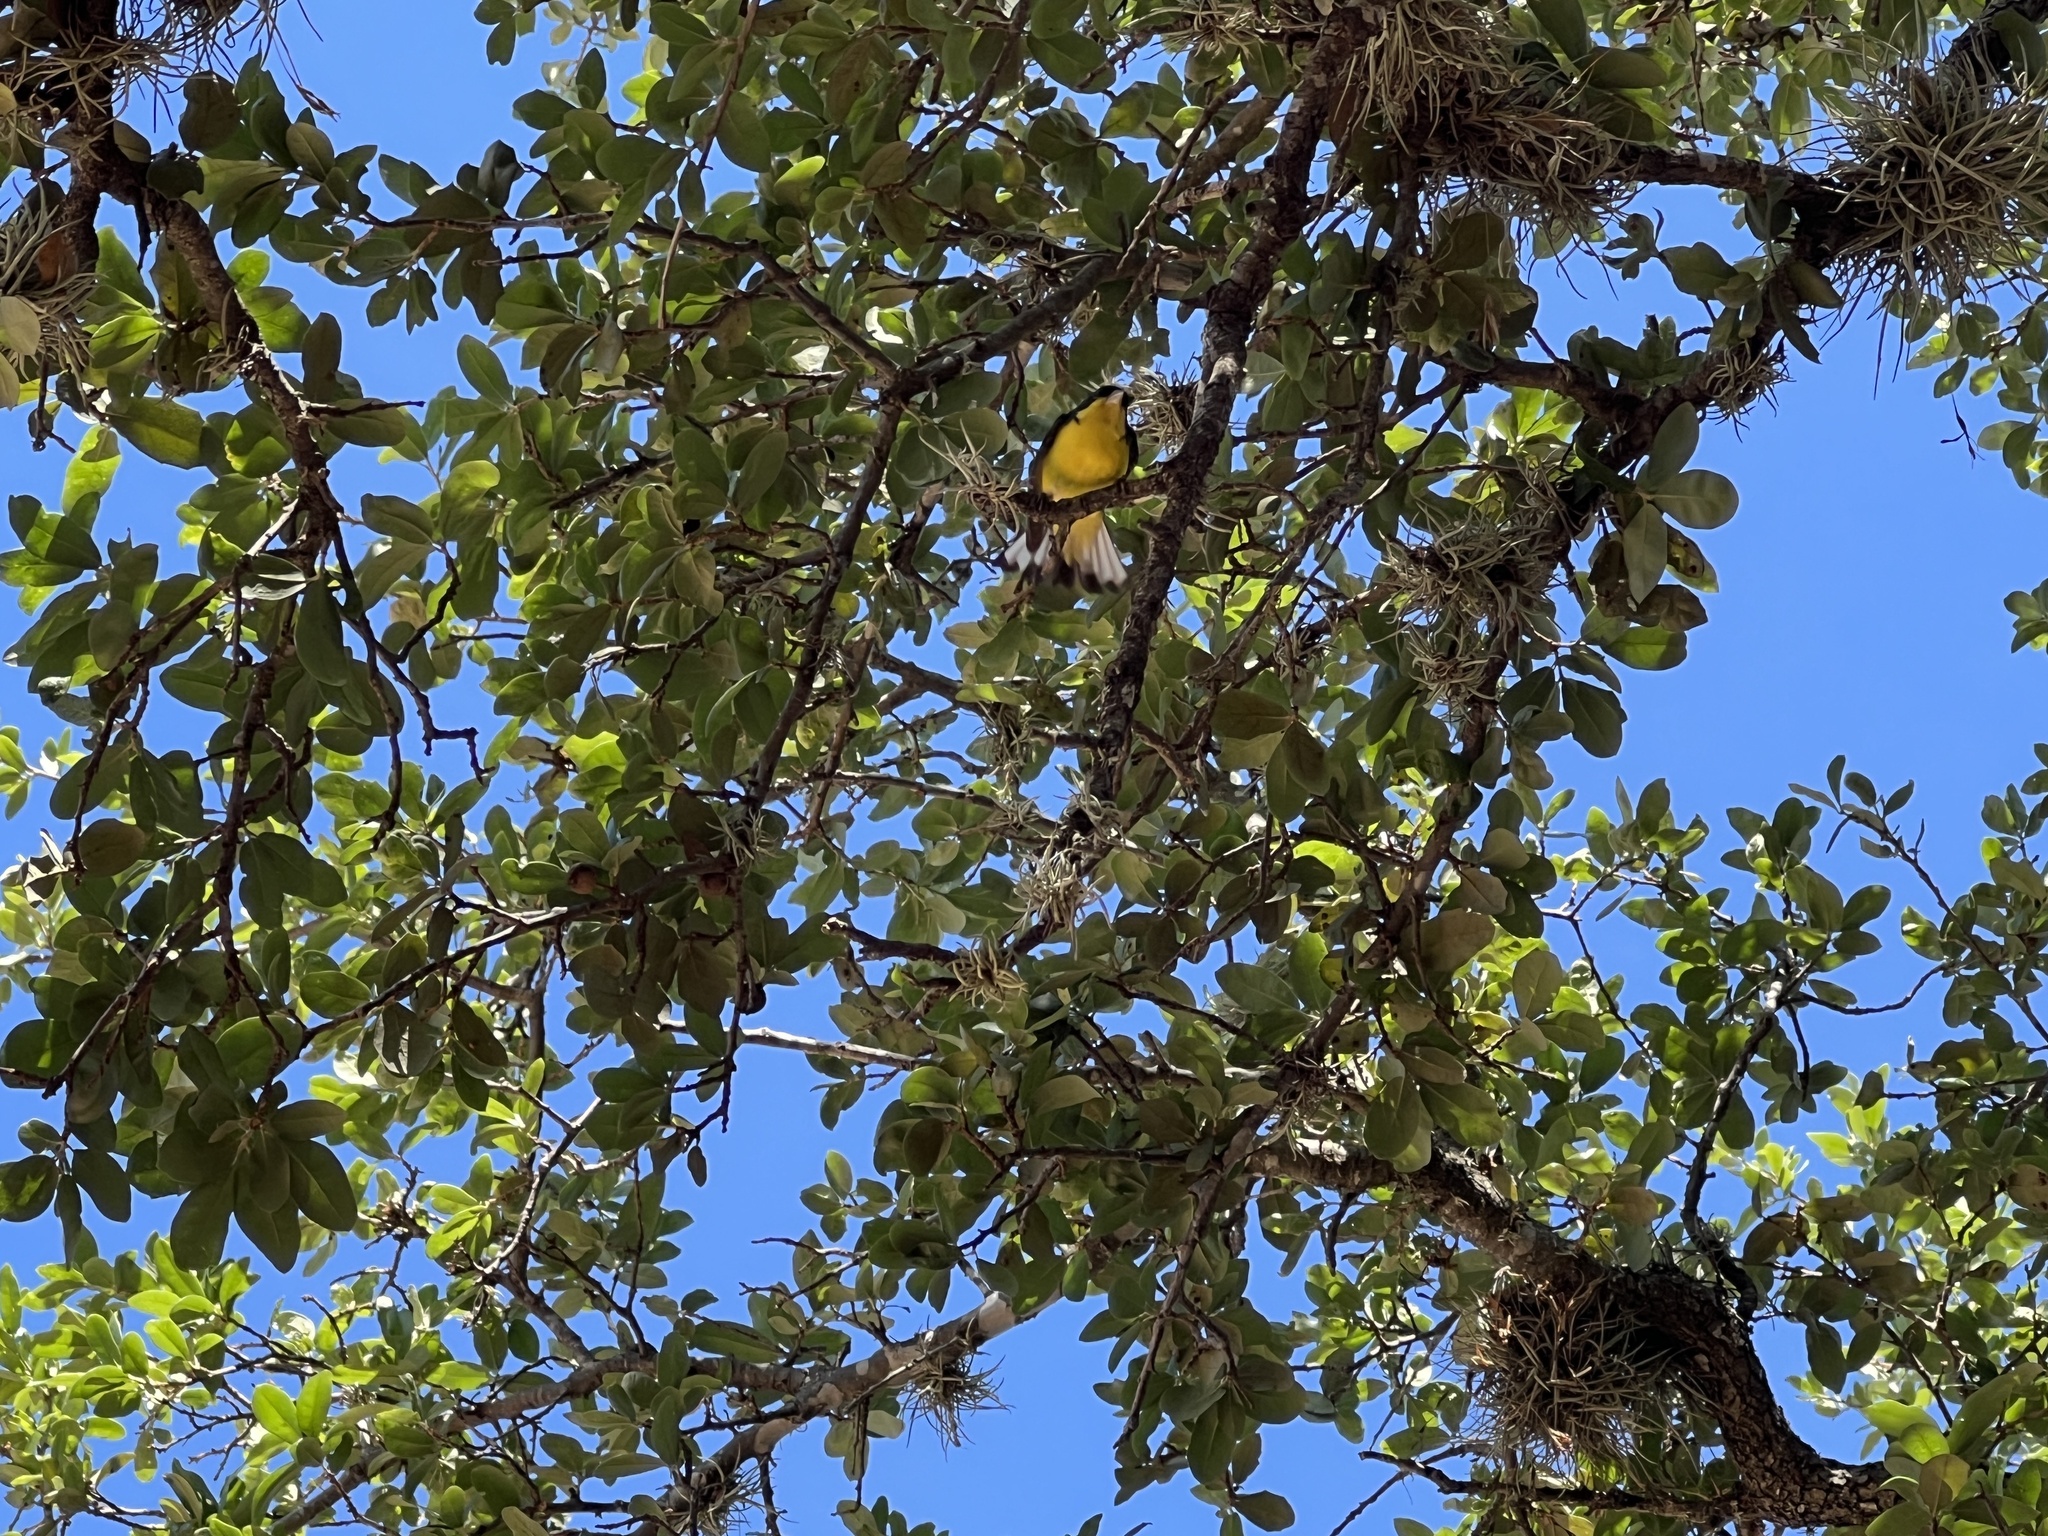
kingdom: Animalia
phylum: Chordata
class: Aves
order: Passeriformes
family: Fringillidae
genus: Spinus
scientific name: Spinus psaltria
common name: Lesser goldfinch
